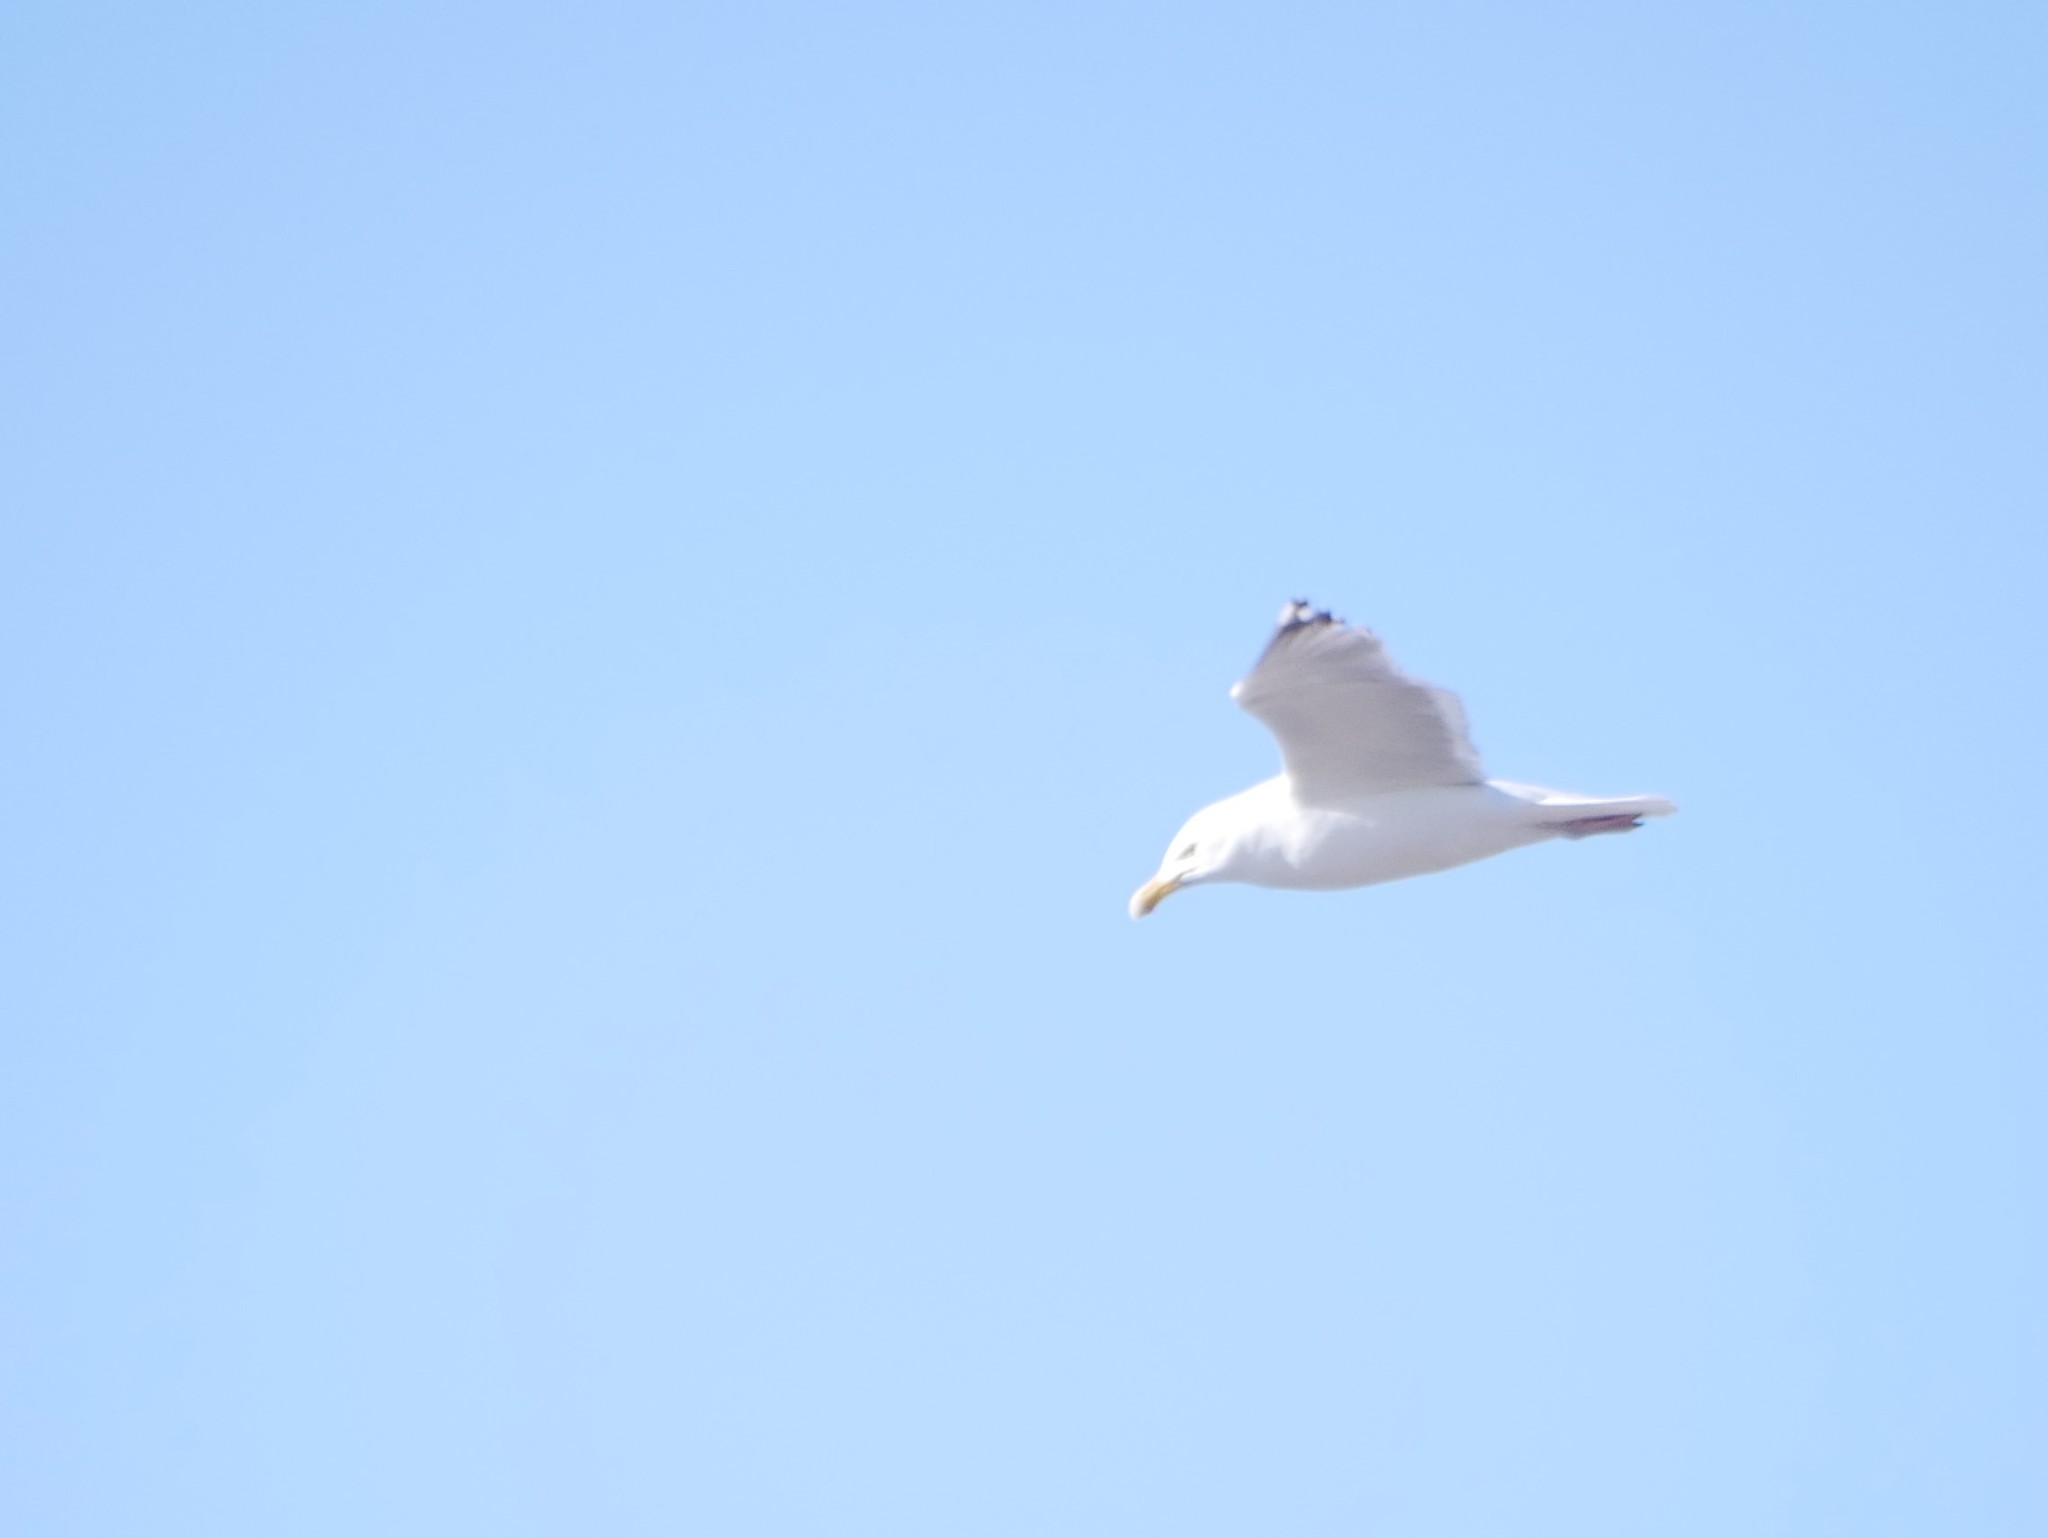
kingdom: Animalia
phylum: Chordata
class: Aves
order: Charadriiformes
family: Laridae
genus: Larus
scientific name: Larus argentatus
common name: Herring gull
